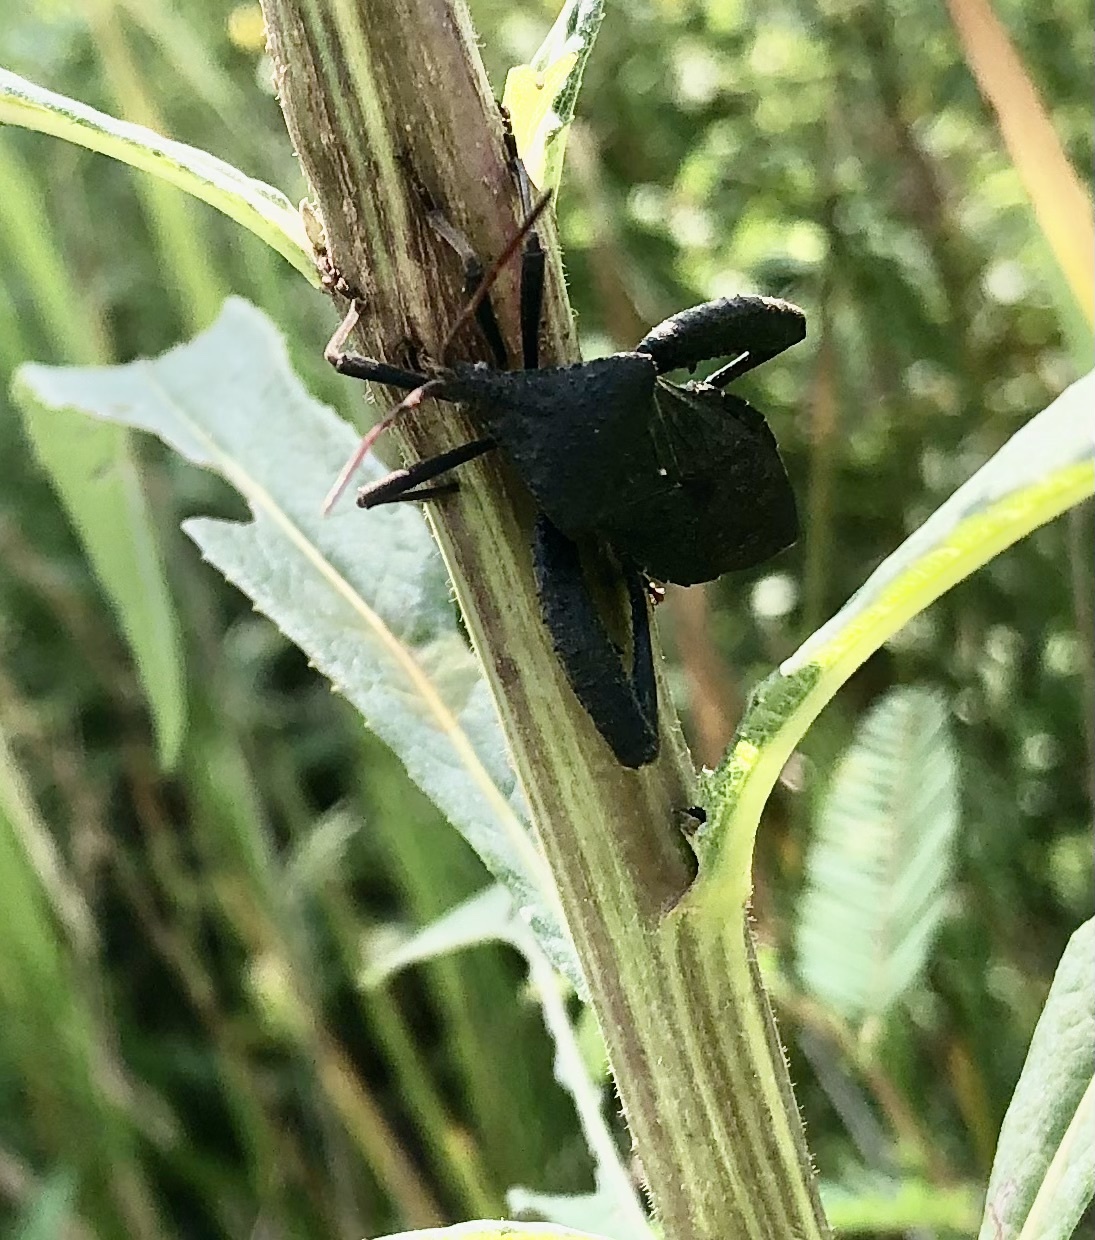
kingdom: Animalia
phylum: Arthropoda
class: Insecta
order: Hemiptera
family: Coreidae
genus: Acanthocephala
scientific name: Acanthocephala femorata
